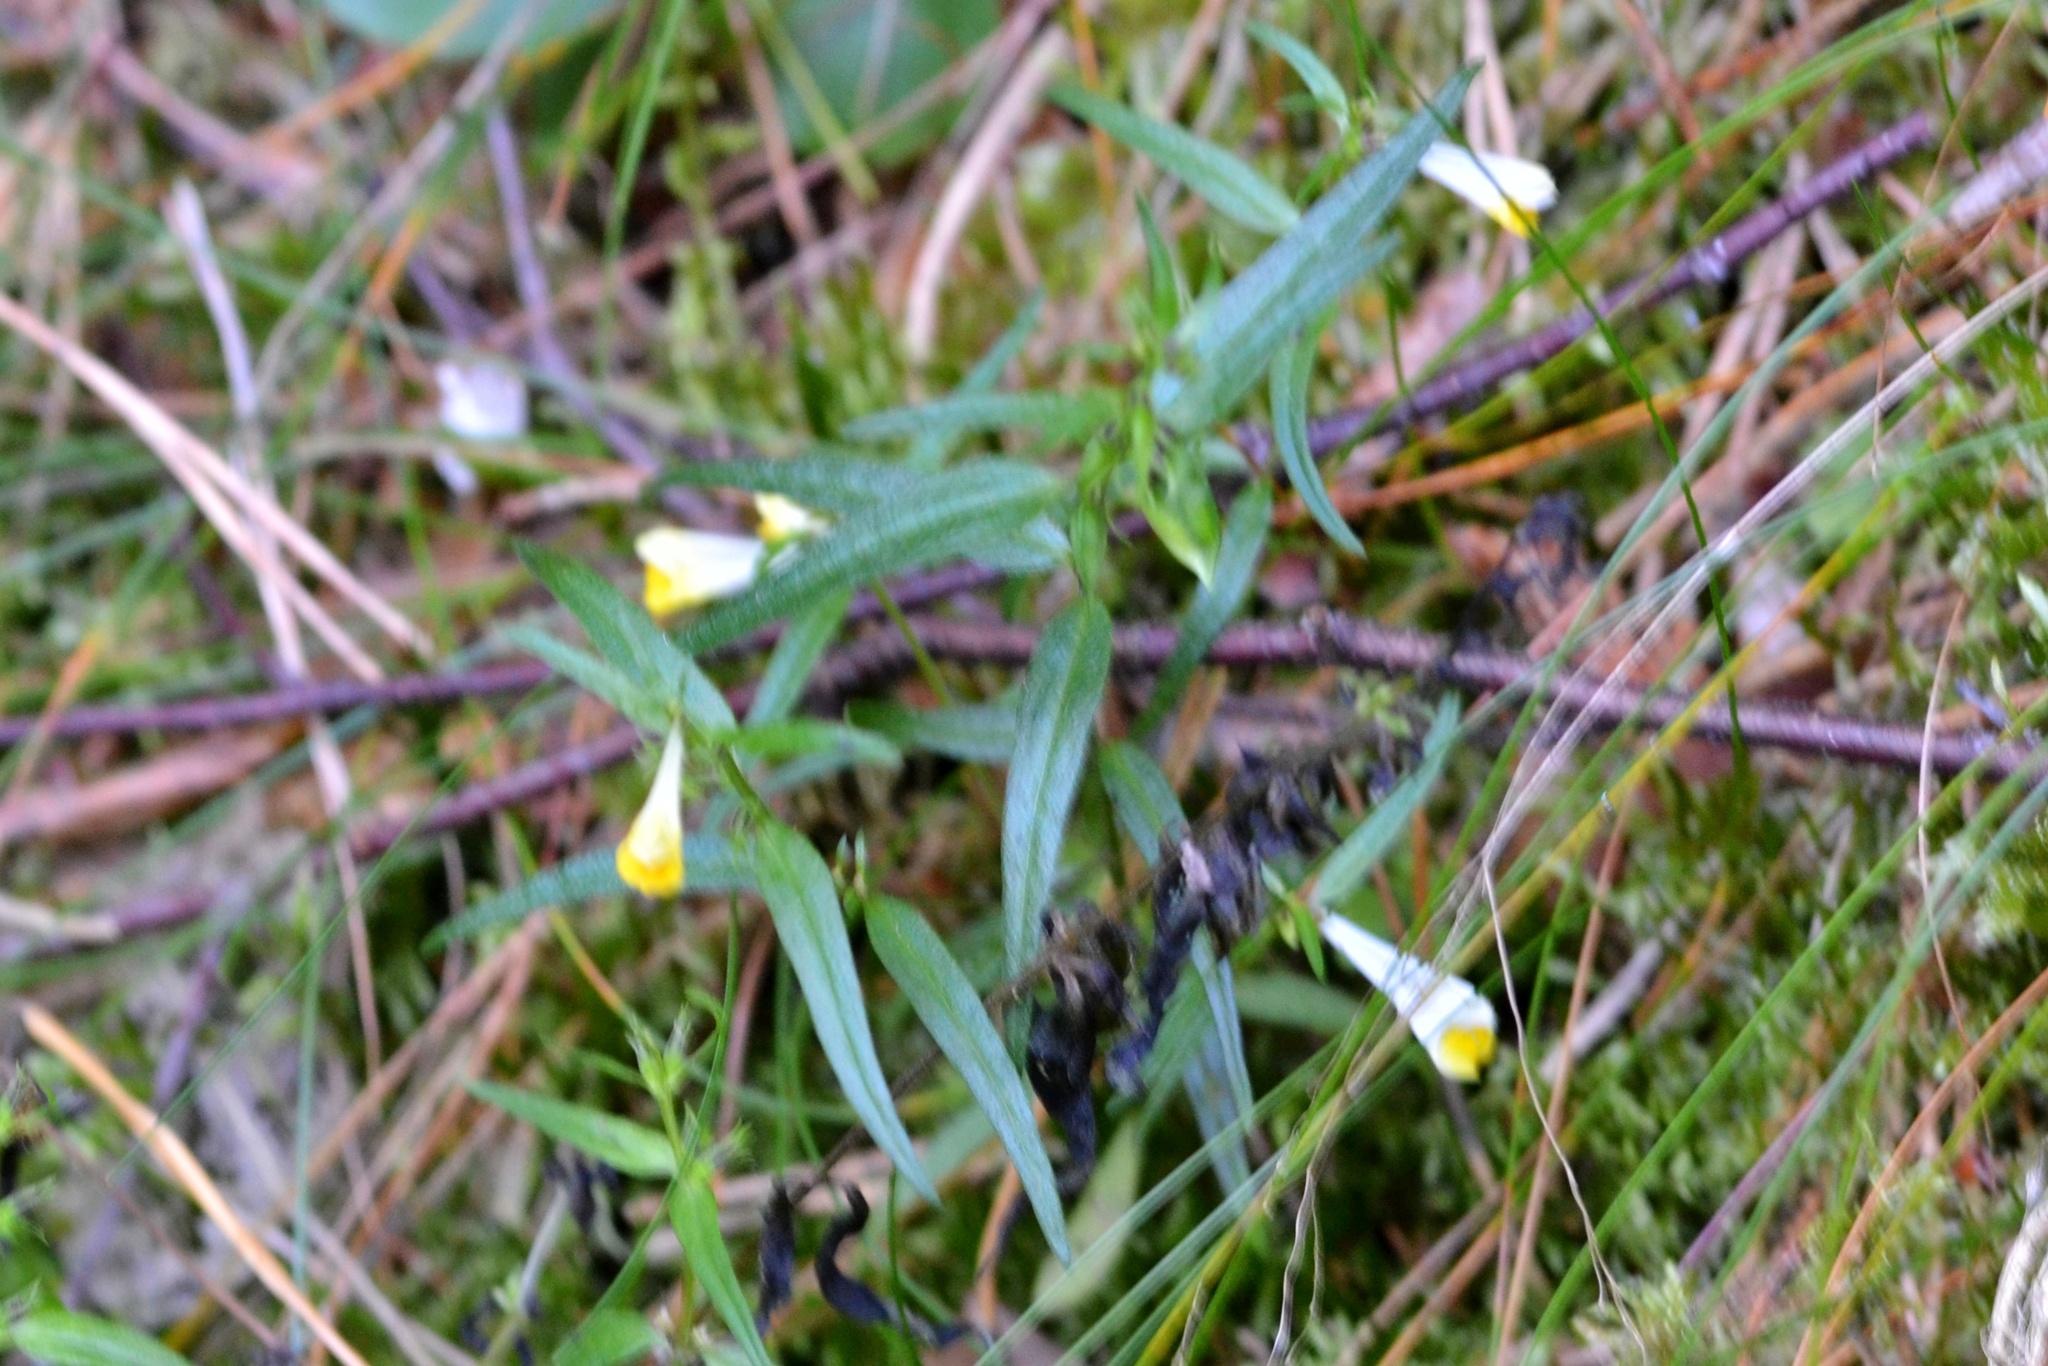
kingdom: Plantae
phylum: Tracheophyta
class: Magnoliopsida
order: Lamiales
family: Orobanchaceae
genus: Melampyrum
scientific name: Melampyrum pratense
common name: Common cow-wheat
